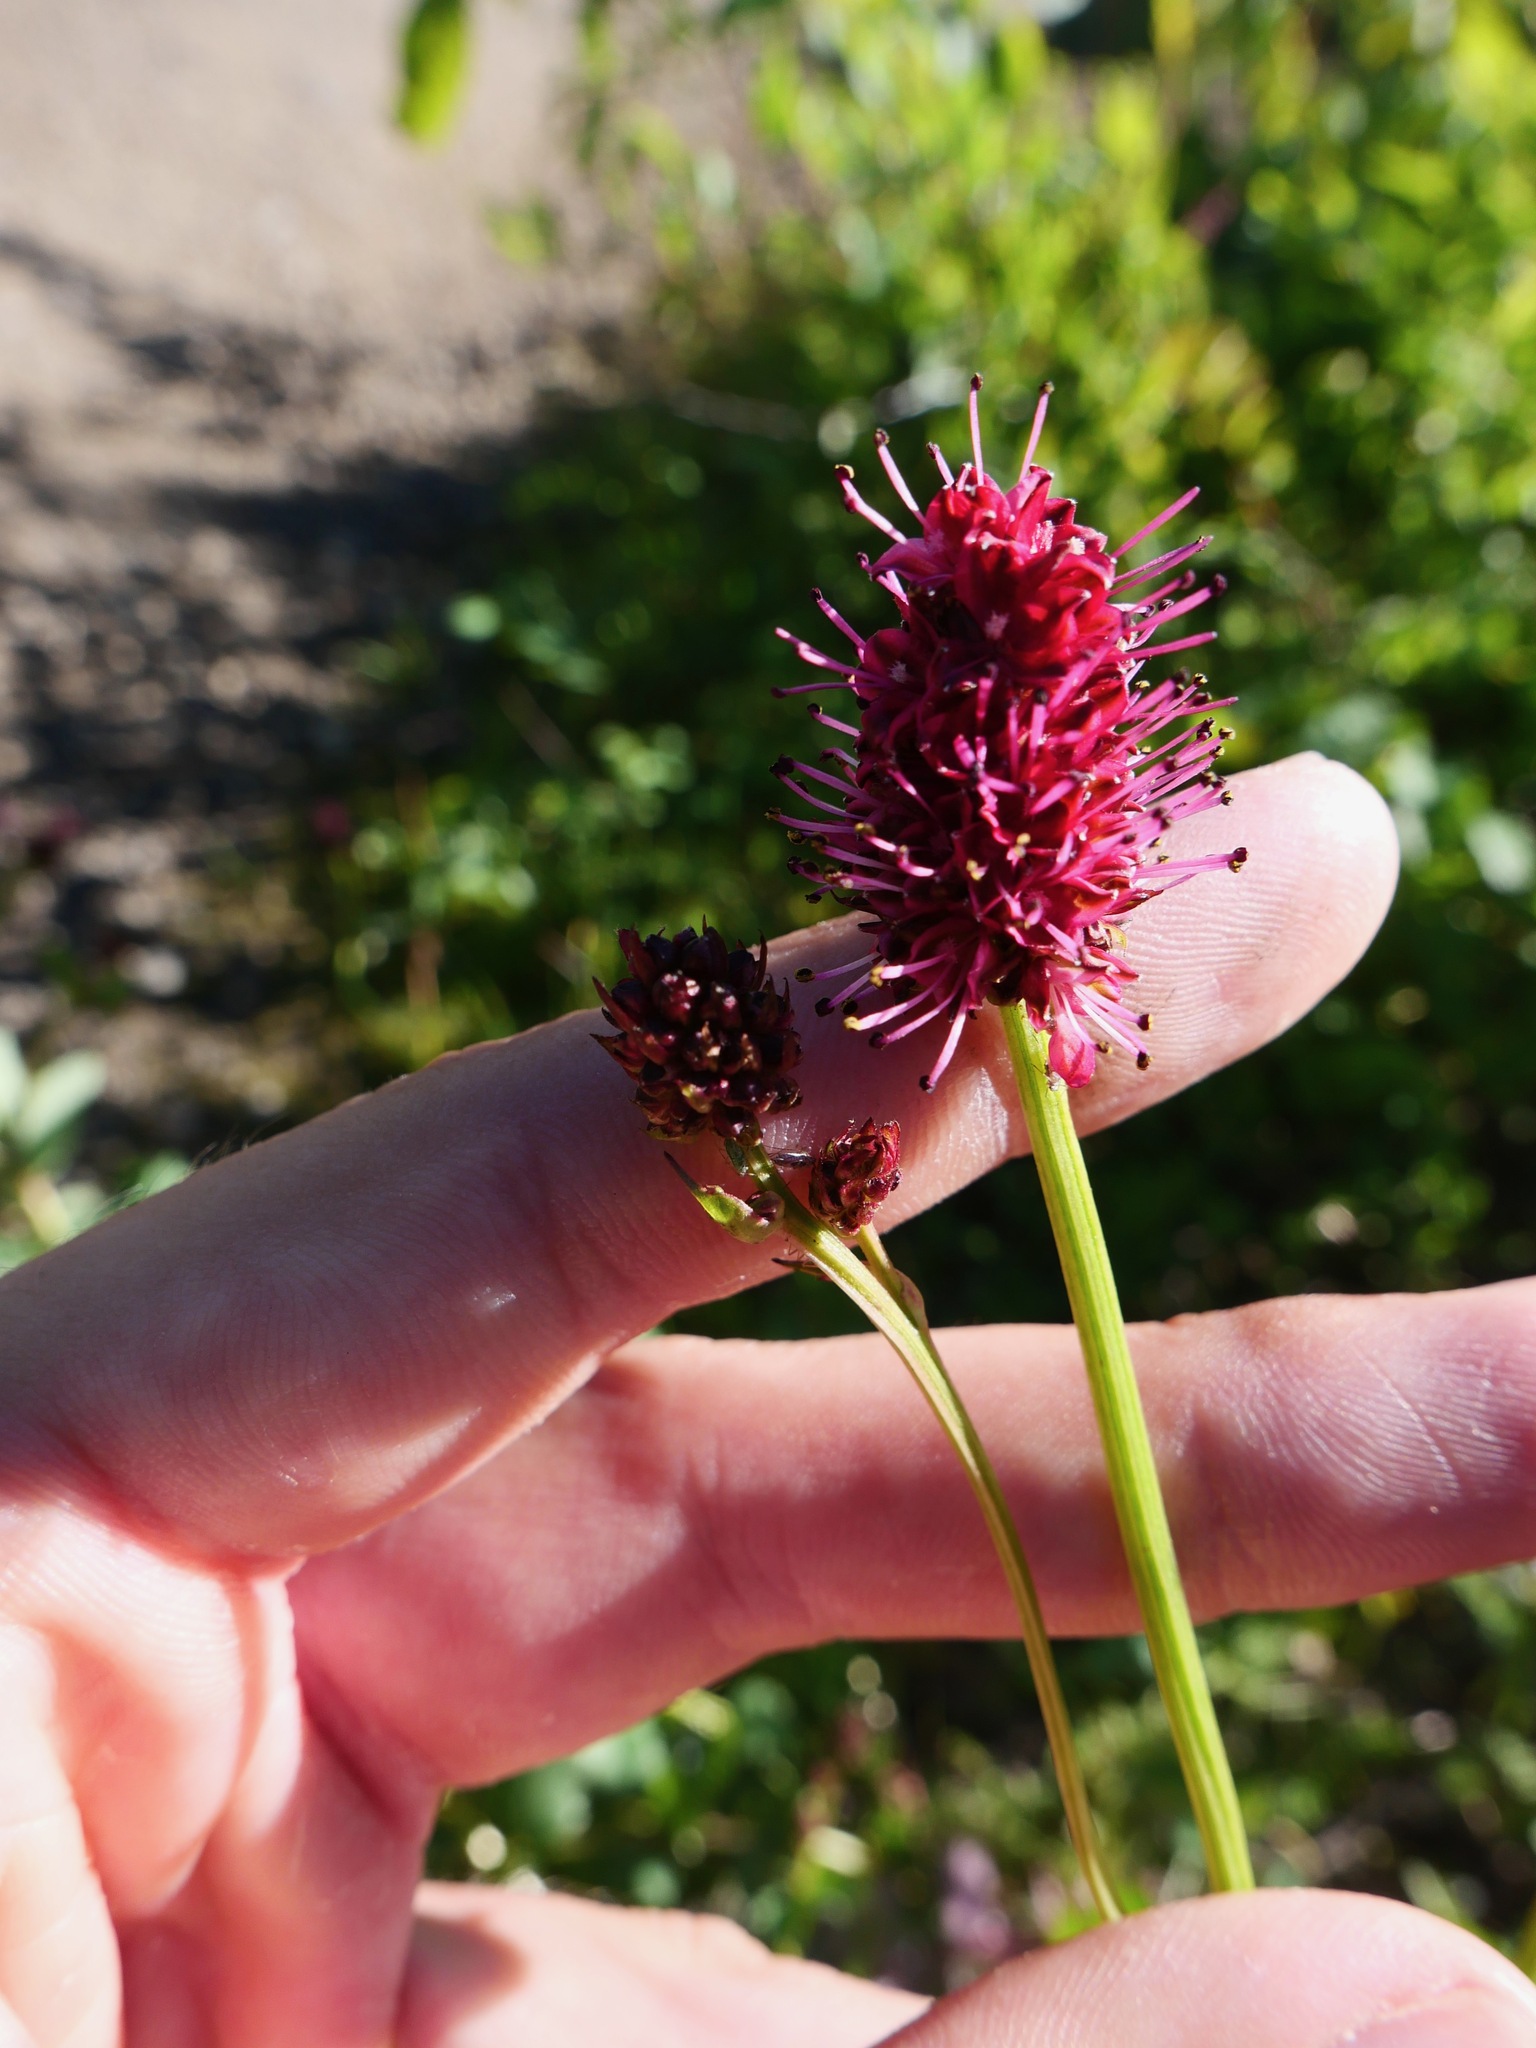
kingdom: Plantae
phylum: Tracheophyta
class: Magnoliopsida
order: Rosales
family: Rosaceae
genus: Sanguisorba
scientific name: Sanguisorba officinalis
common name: Great burnet
